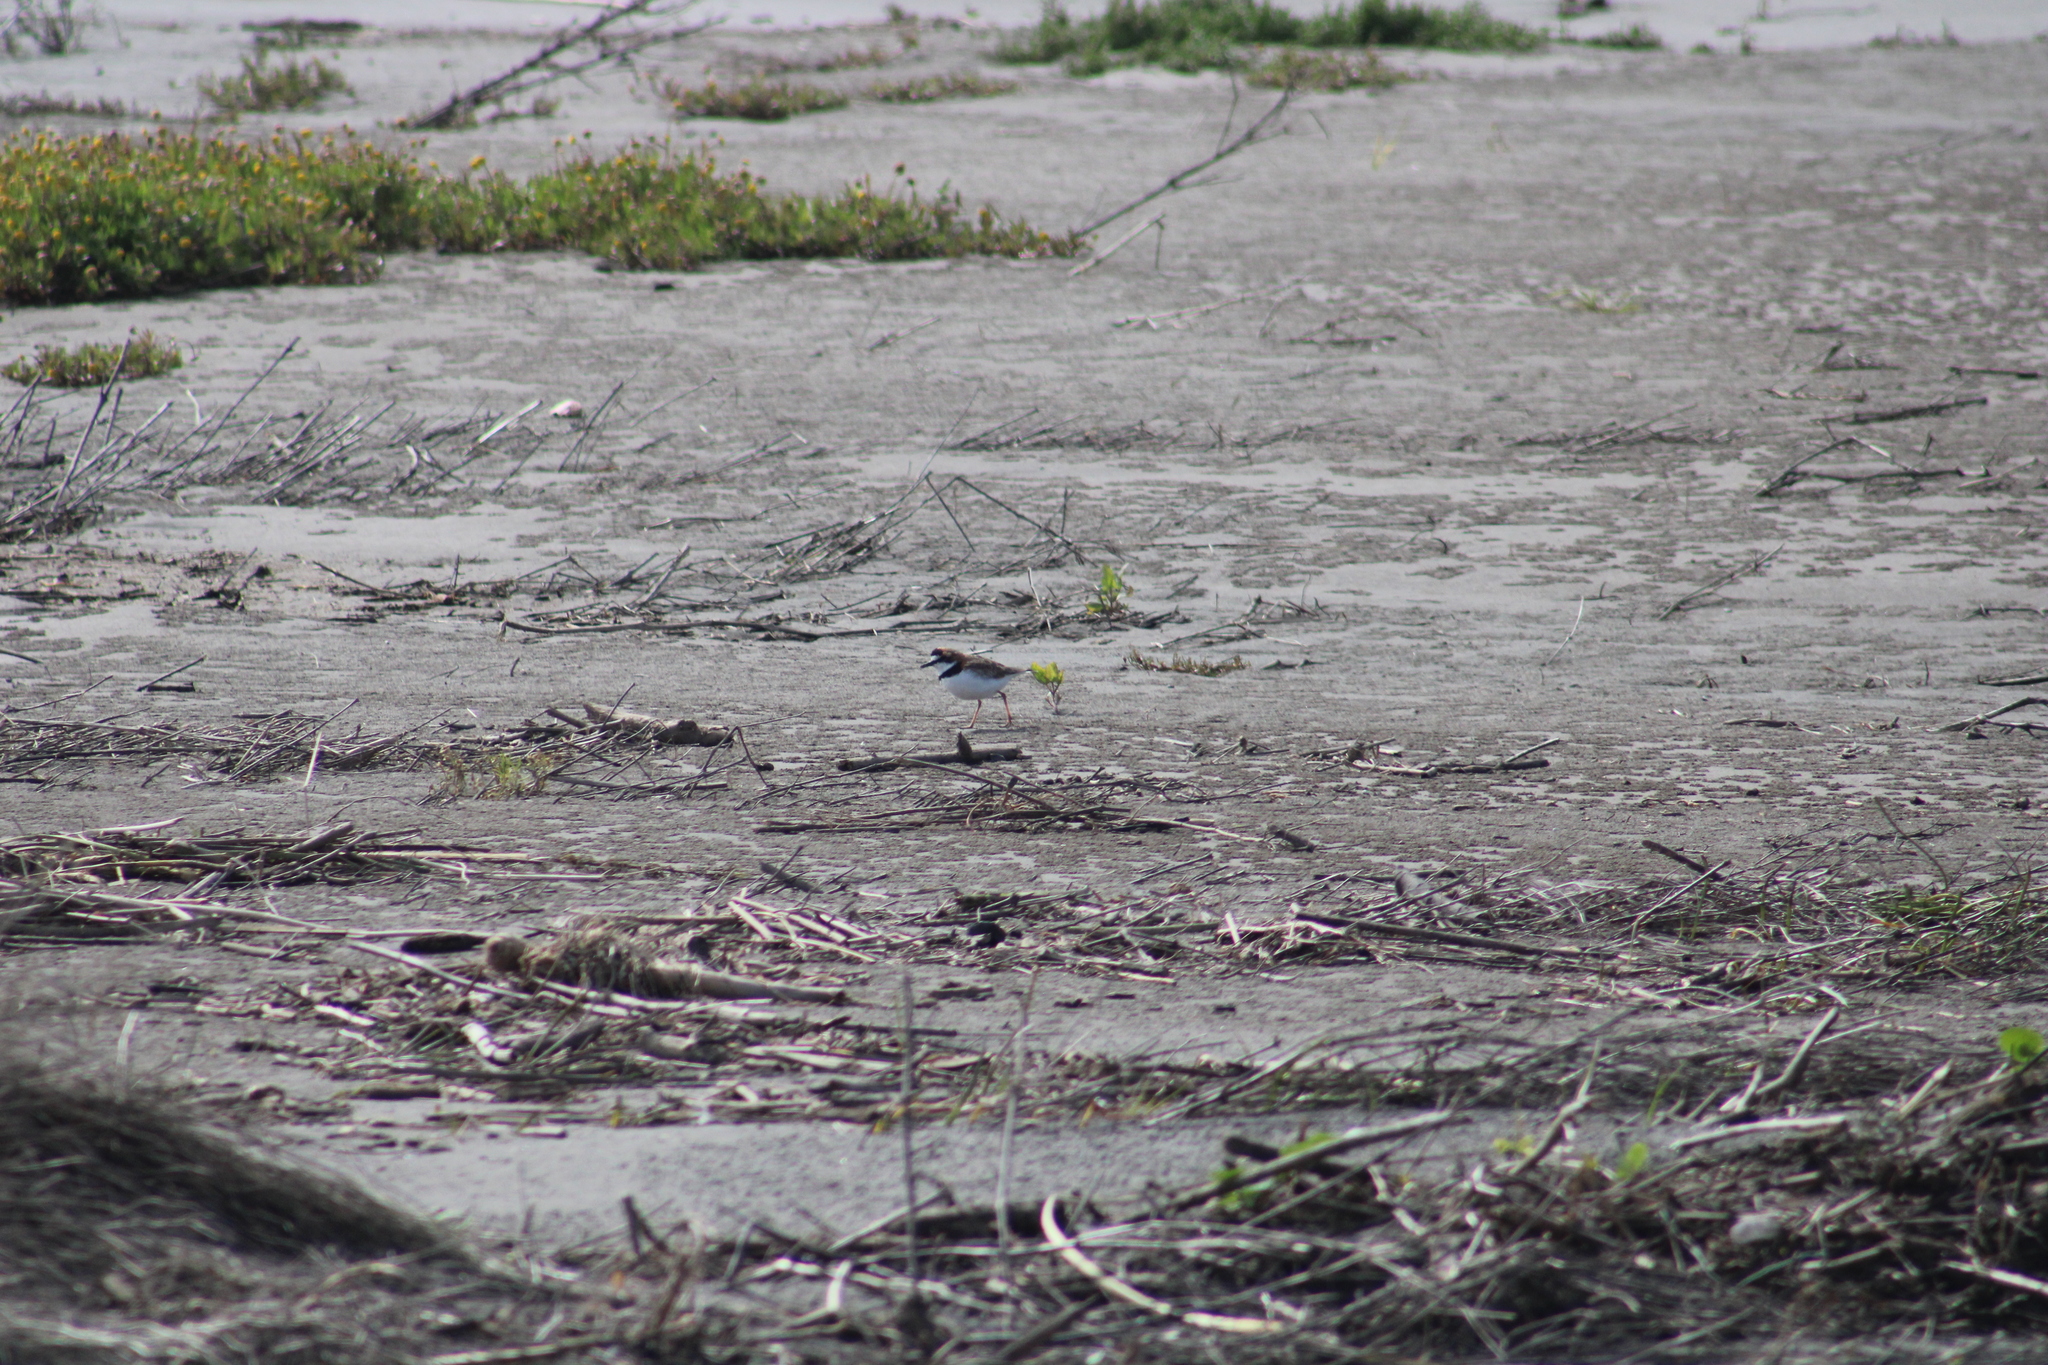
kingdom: Animalia
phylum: Chordata
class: Aves
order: Charadriiformes
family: Charadriidae
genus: Anarhynchus
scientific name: Anarhynchus
